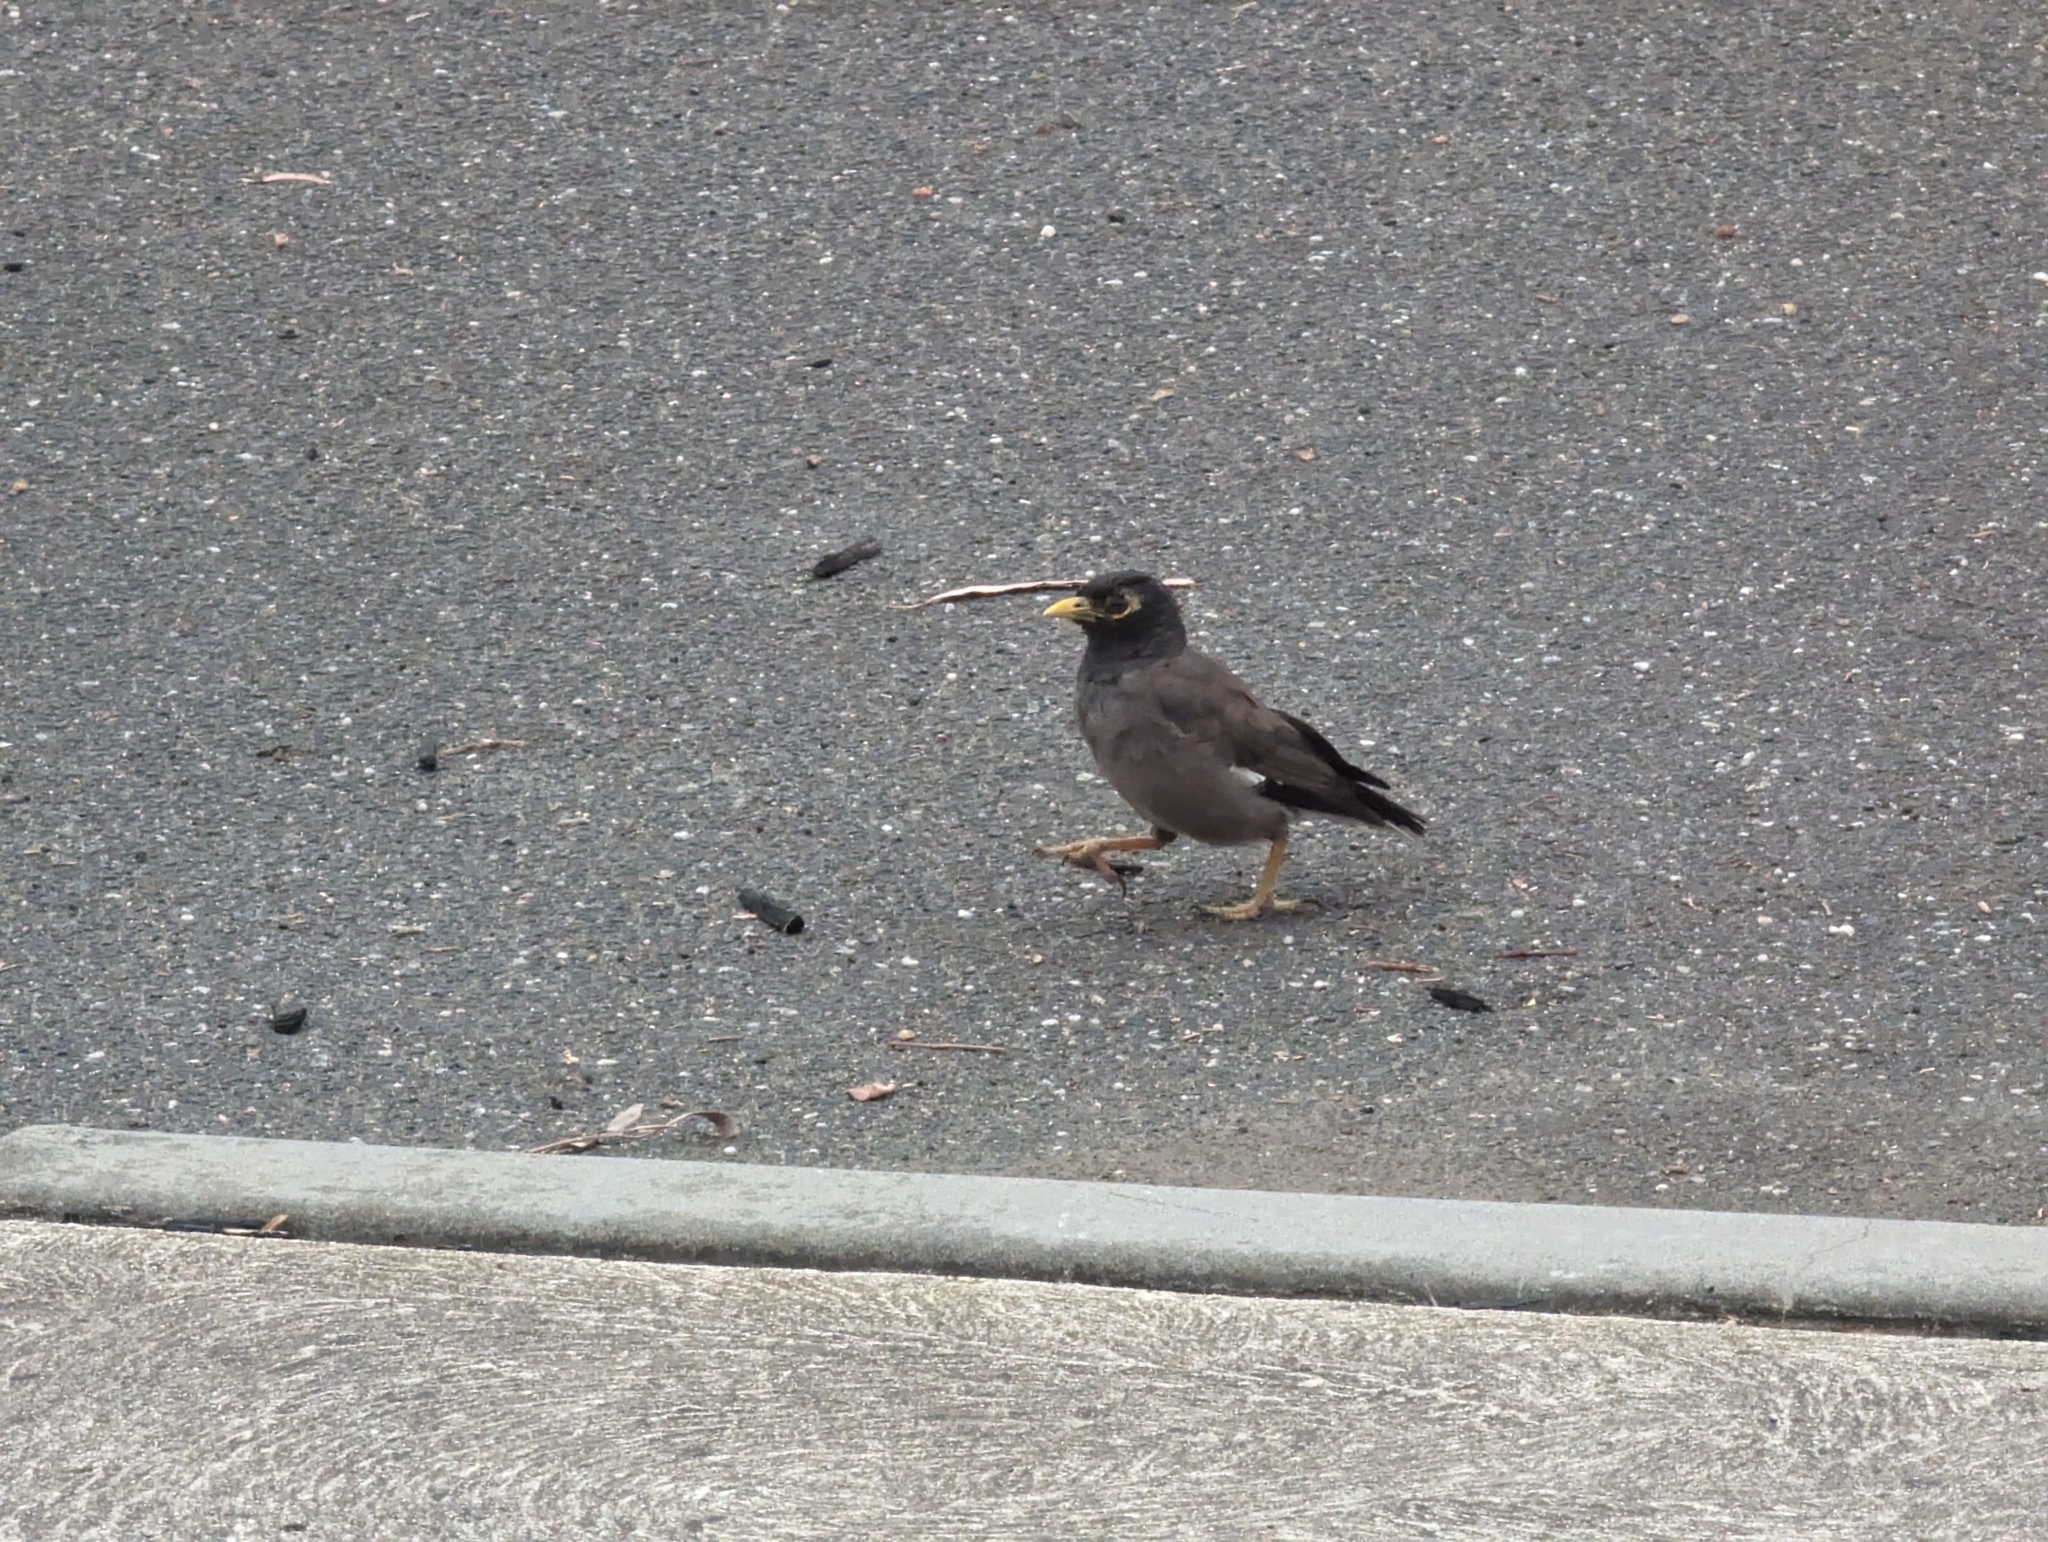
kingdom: Animalia
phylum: Chordata
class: Aves
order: Passeriformes
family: Sturnidae
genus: Acridotheres
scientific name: Acridotheres tristis
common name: Common myna
